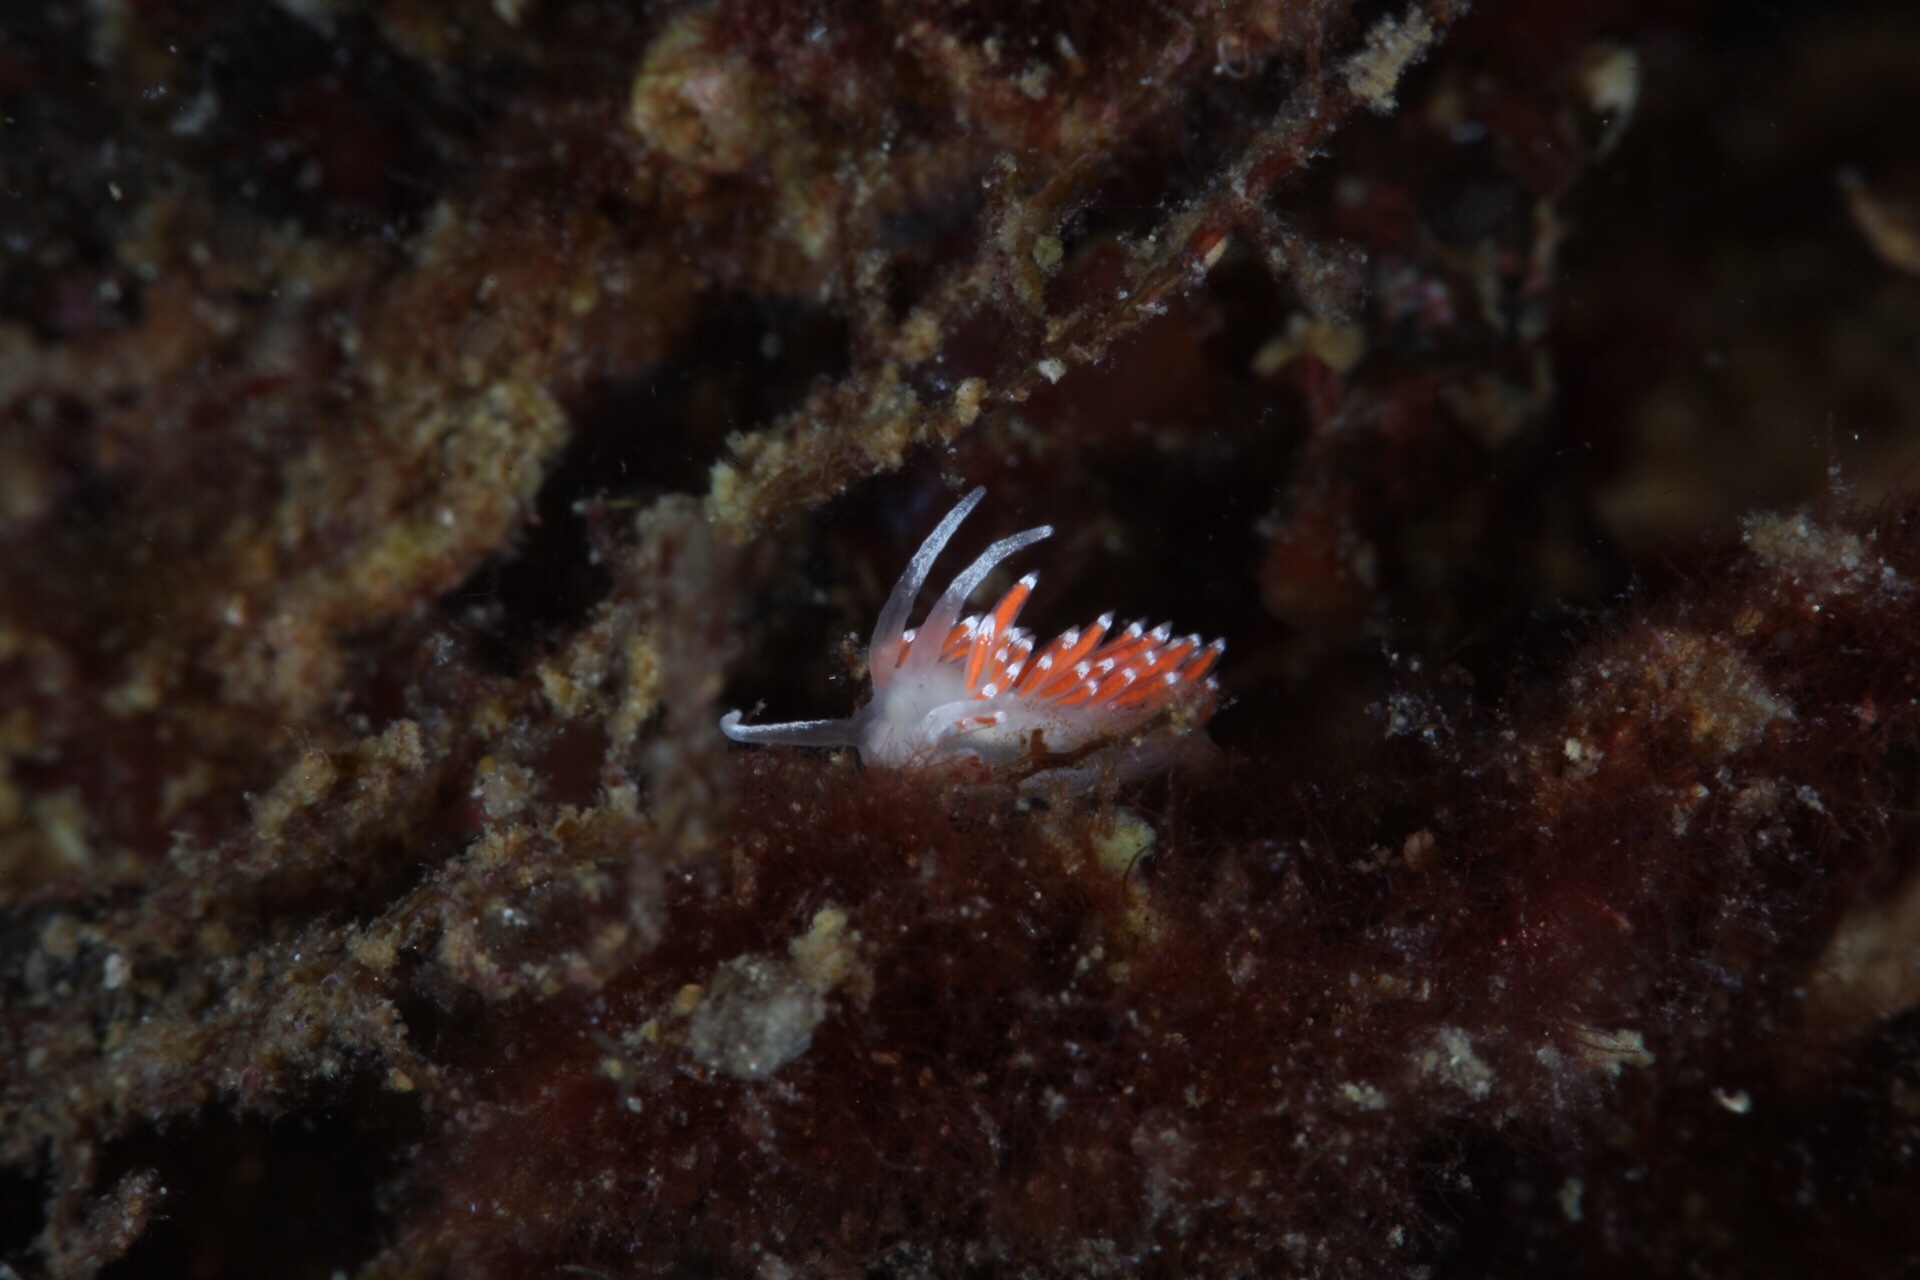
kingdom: Animalia
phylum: Mollusca
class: Gastropoda
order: Nudibranchia
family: Coryphellidae
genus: Coryphella
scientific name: Coryphella gracilis
